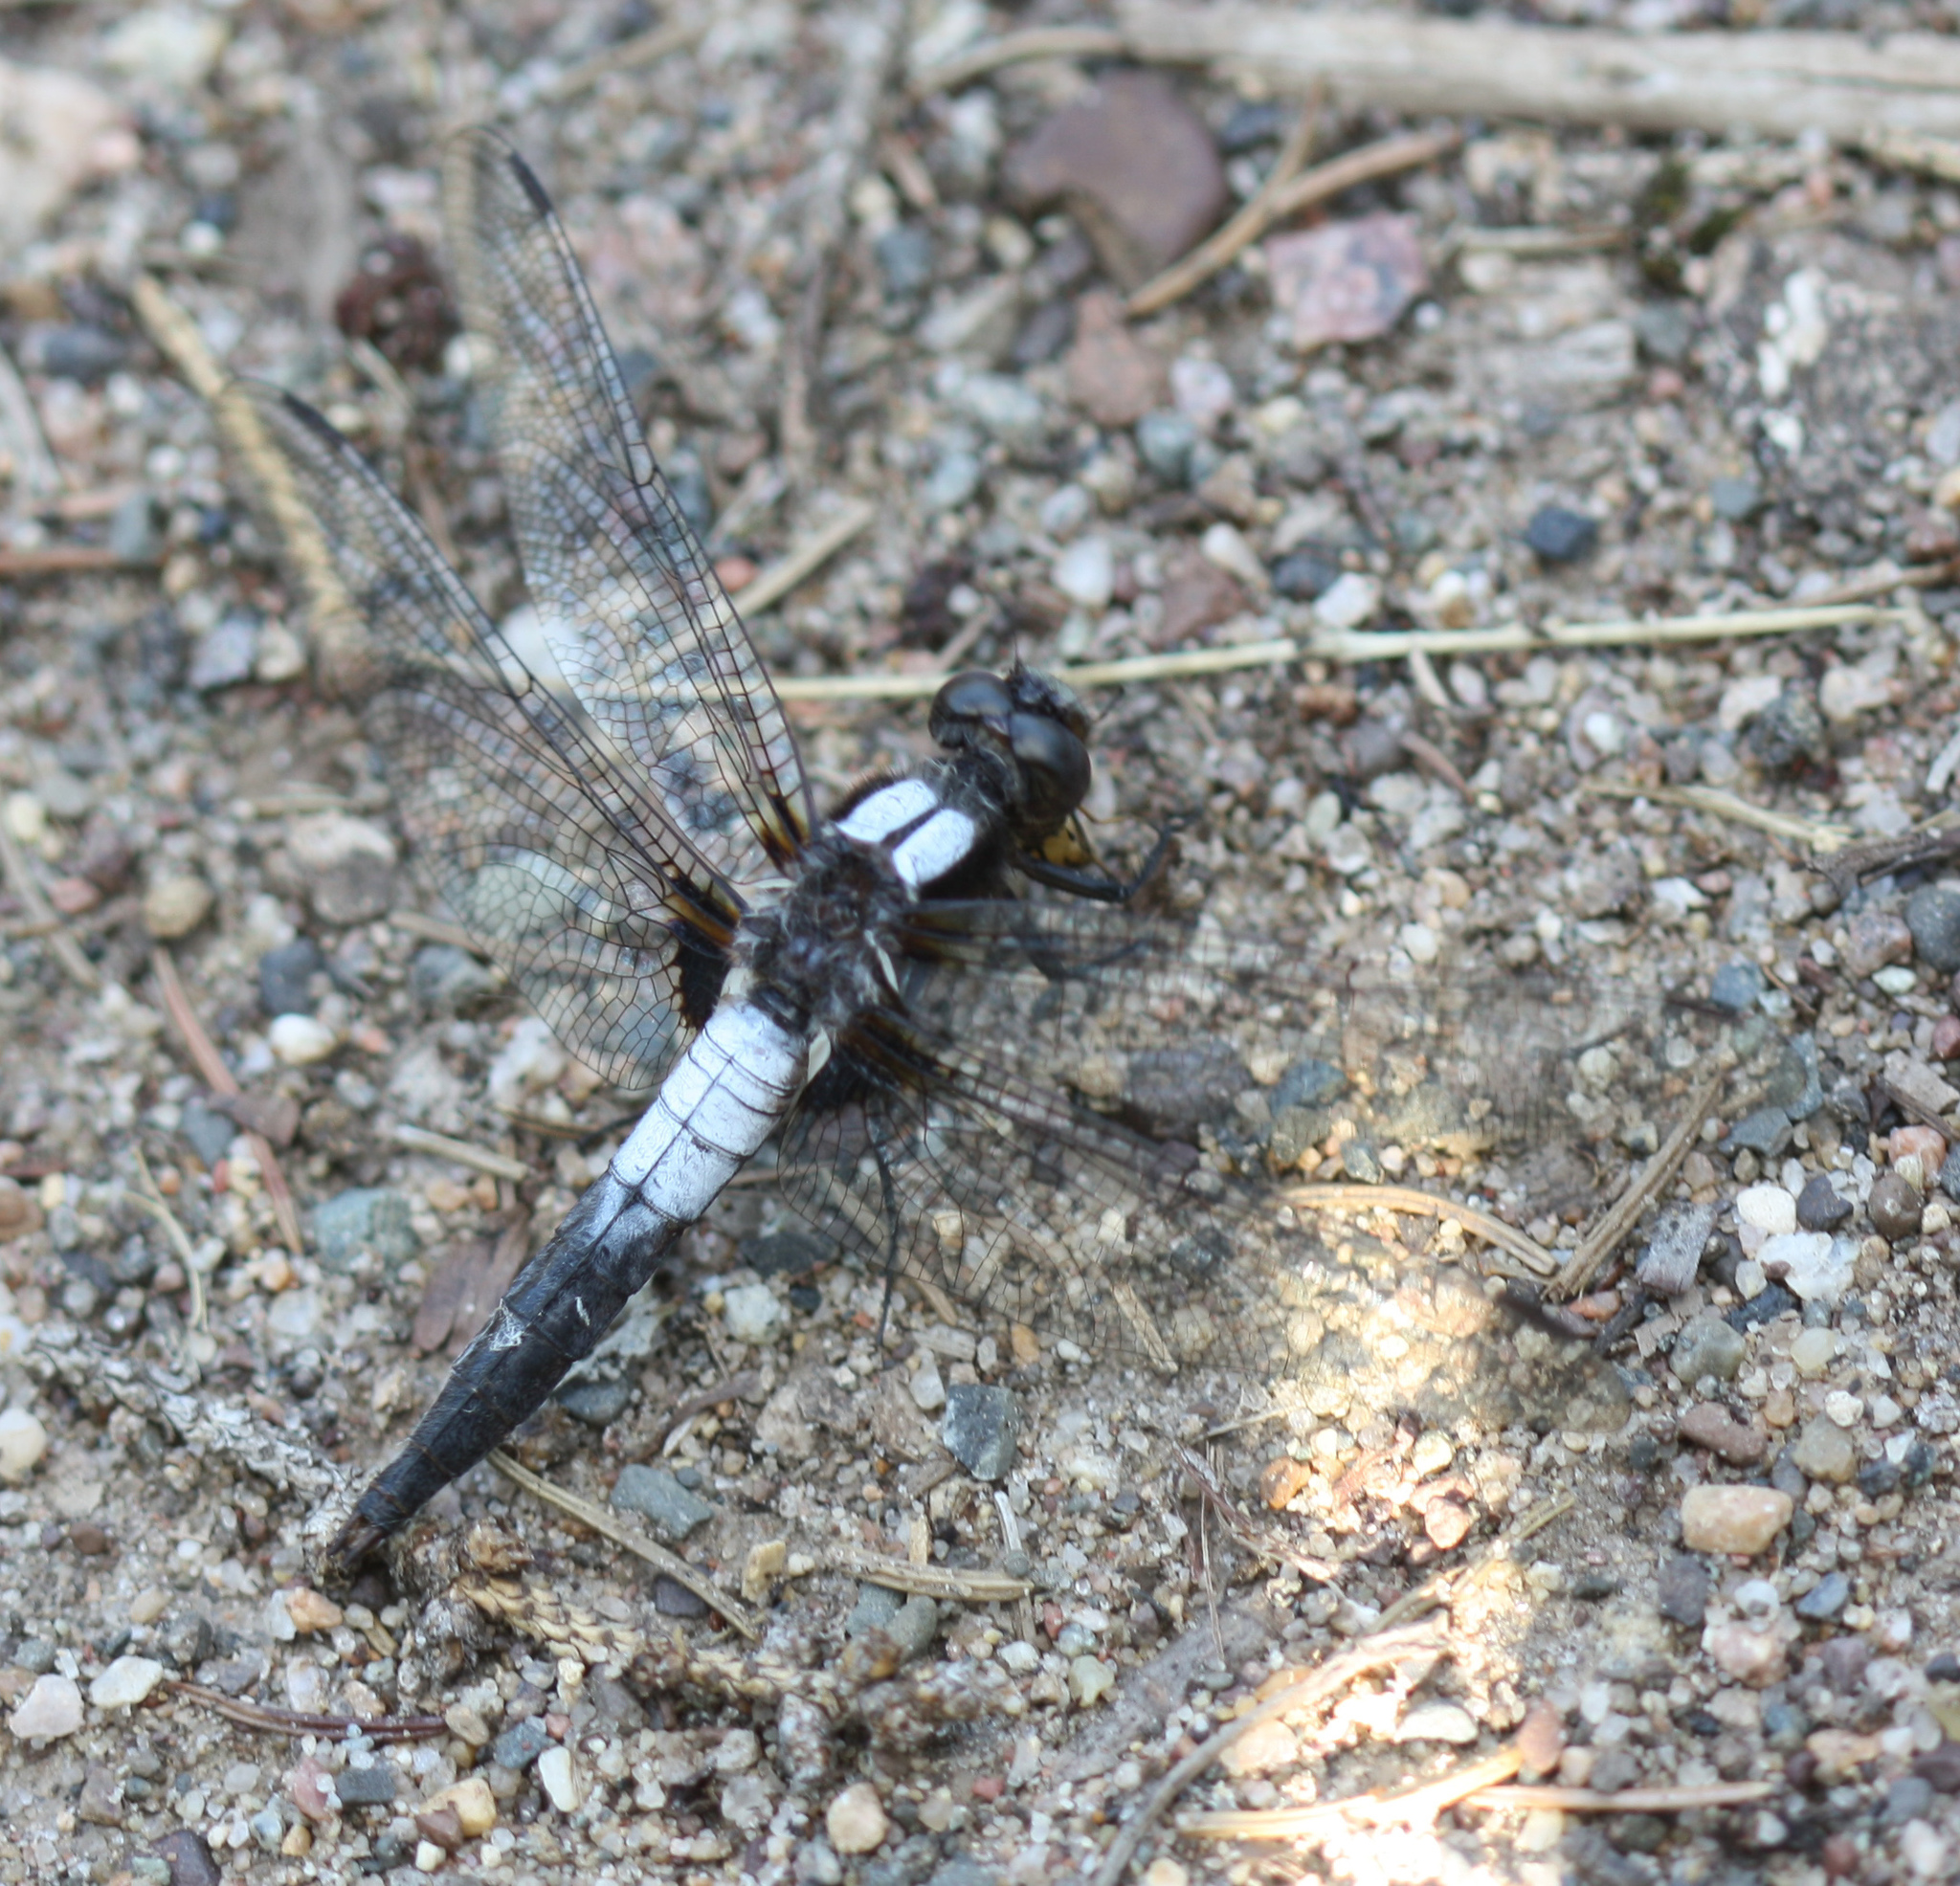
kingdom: Animalia
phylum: Arthropoda
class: Insecta
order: Odonata
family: Libellulidae
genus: Ladona
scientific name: Ladona julia
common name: Chalk-fronted corporal
